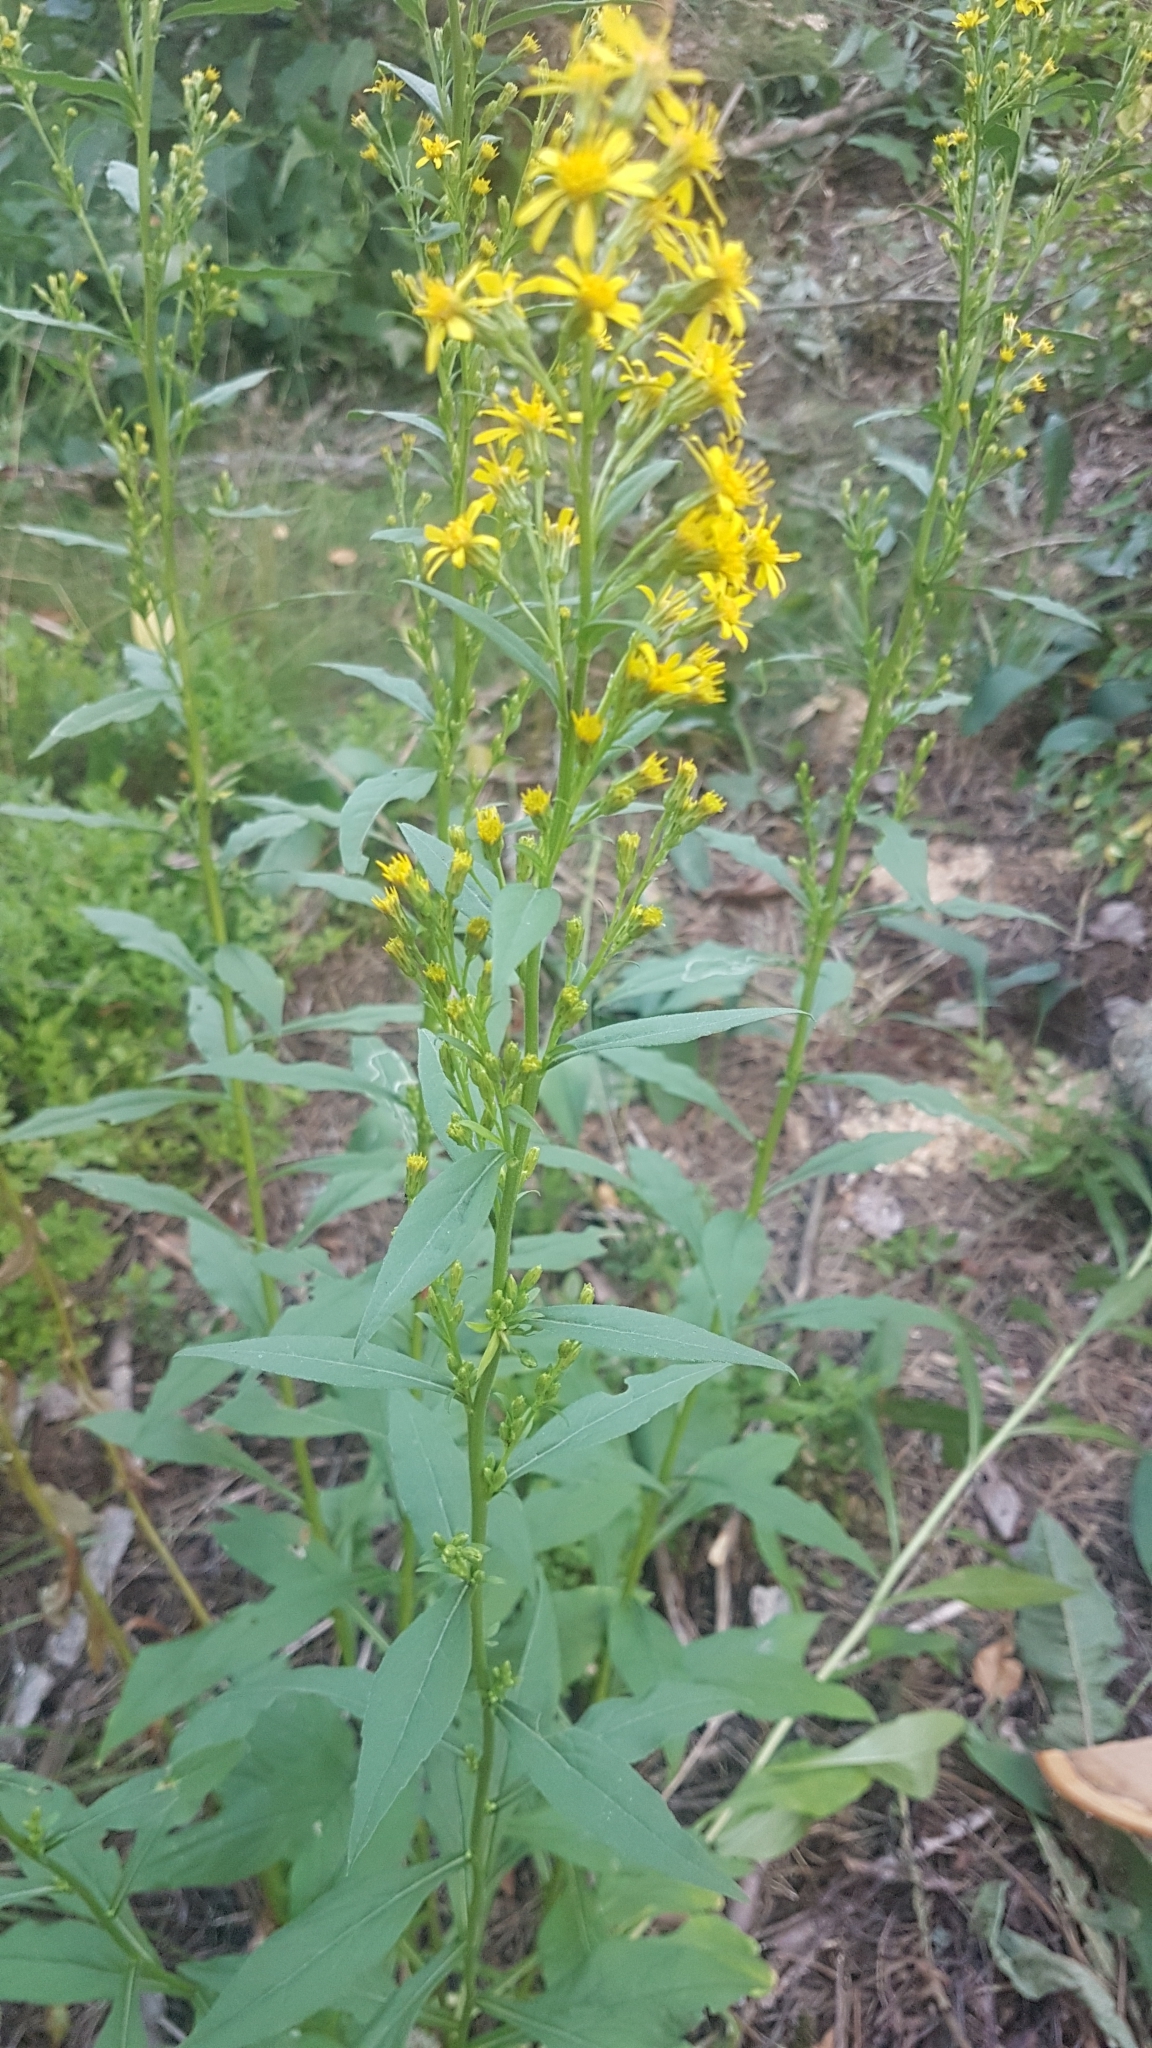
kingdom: Plantae
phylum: Tracheophyta
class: Magnoliopsida
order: Asterales
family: Asteraceae
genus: Solidago
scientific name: Solidago virgaurea
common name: Goldenrod
